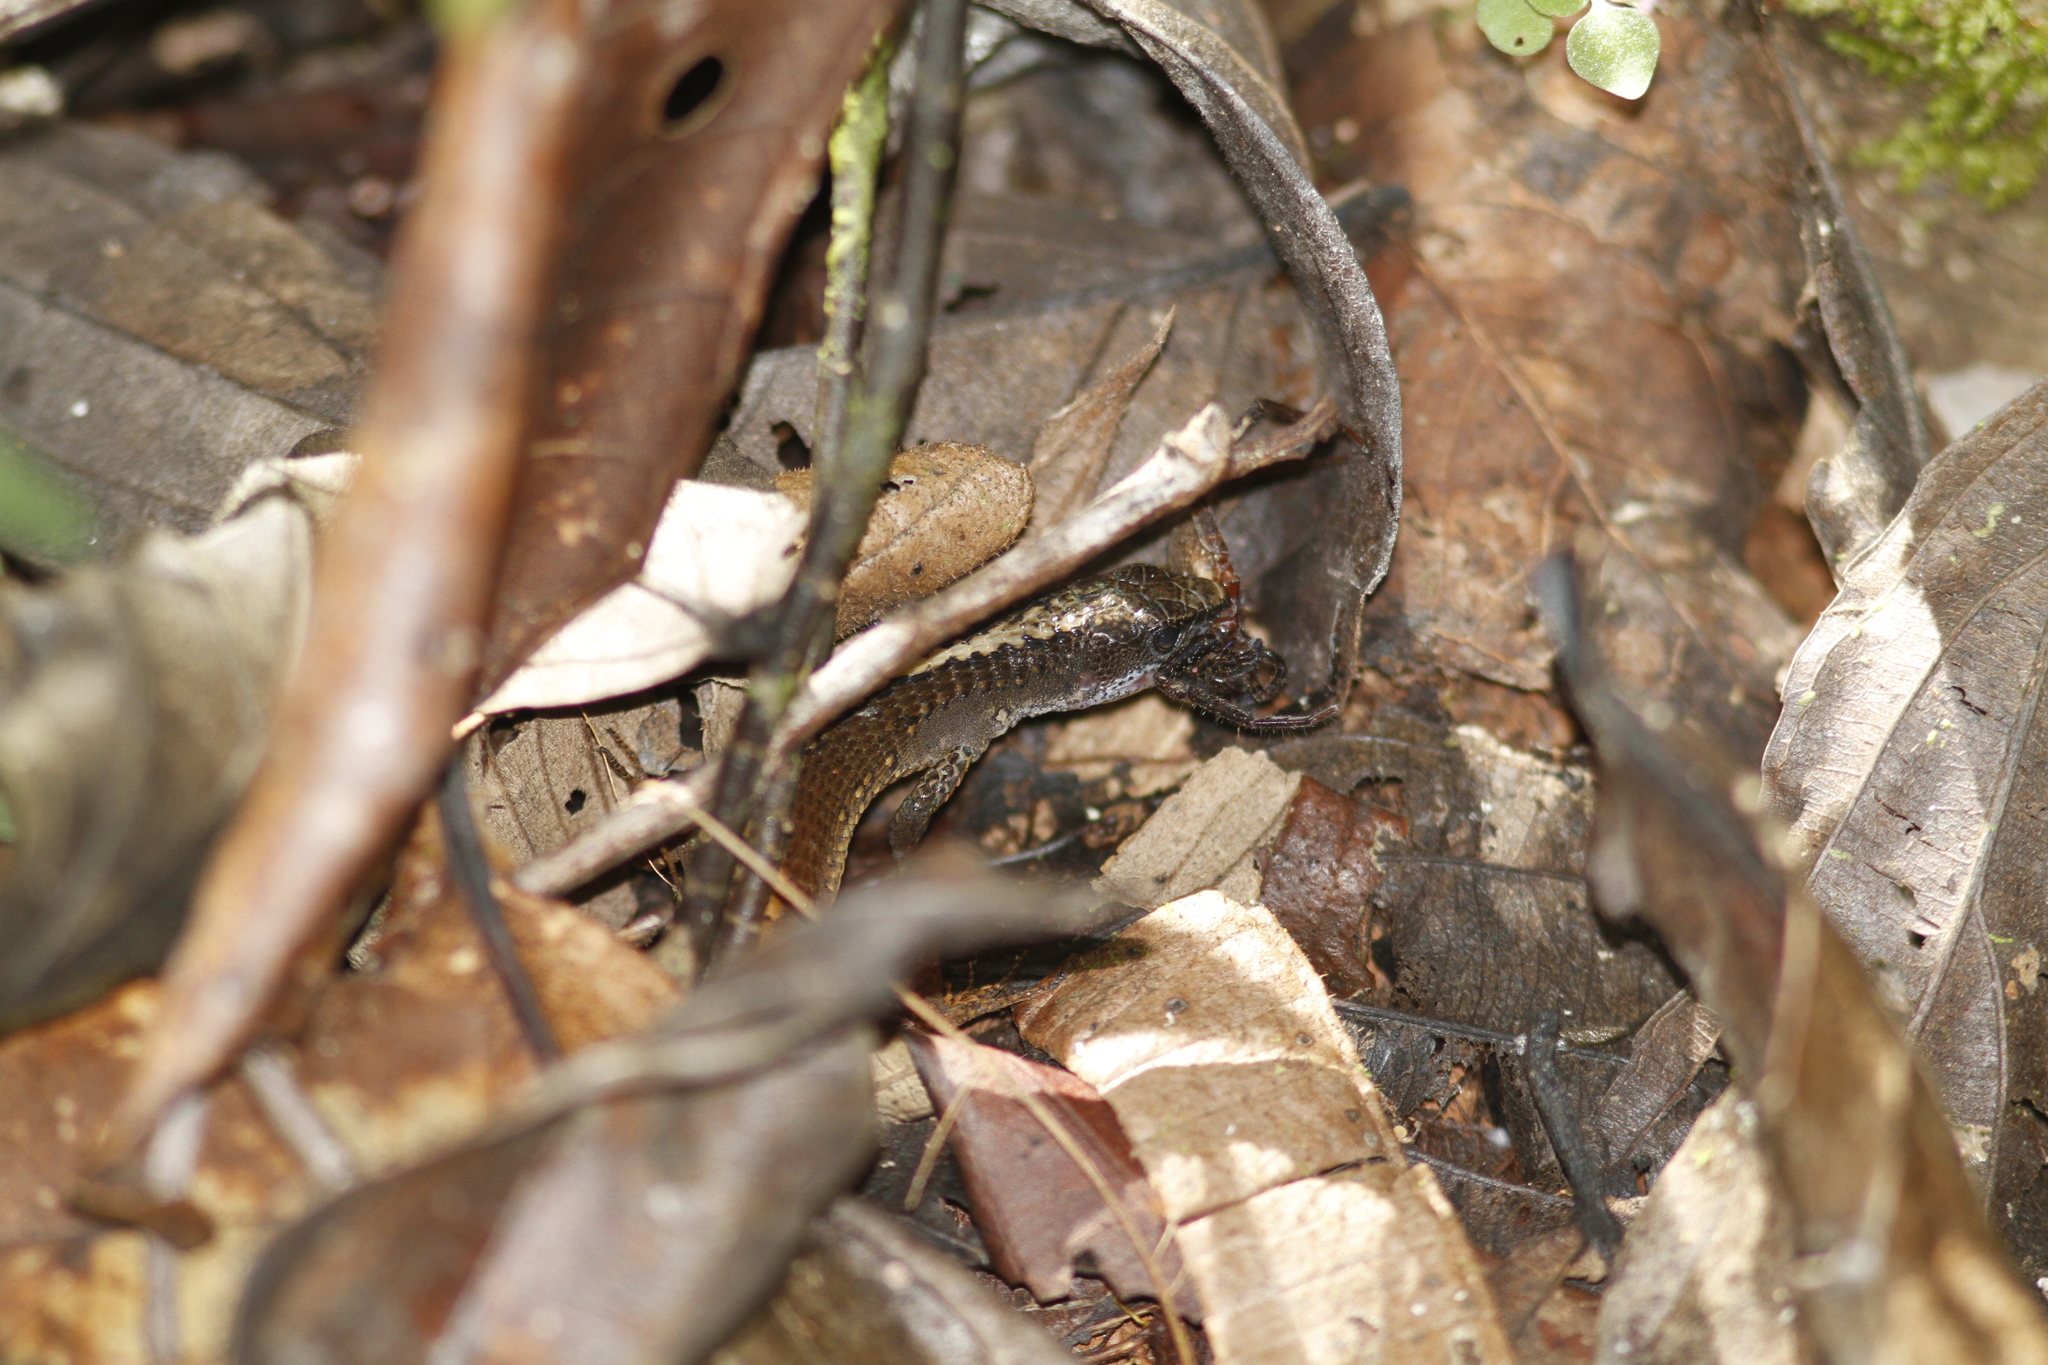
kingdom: Animalia
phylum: Chordata
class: Squamata
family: Gymnophthalmidae
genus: Arthrosaura
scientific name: Arthrosaura kockii
